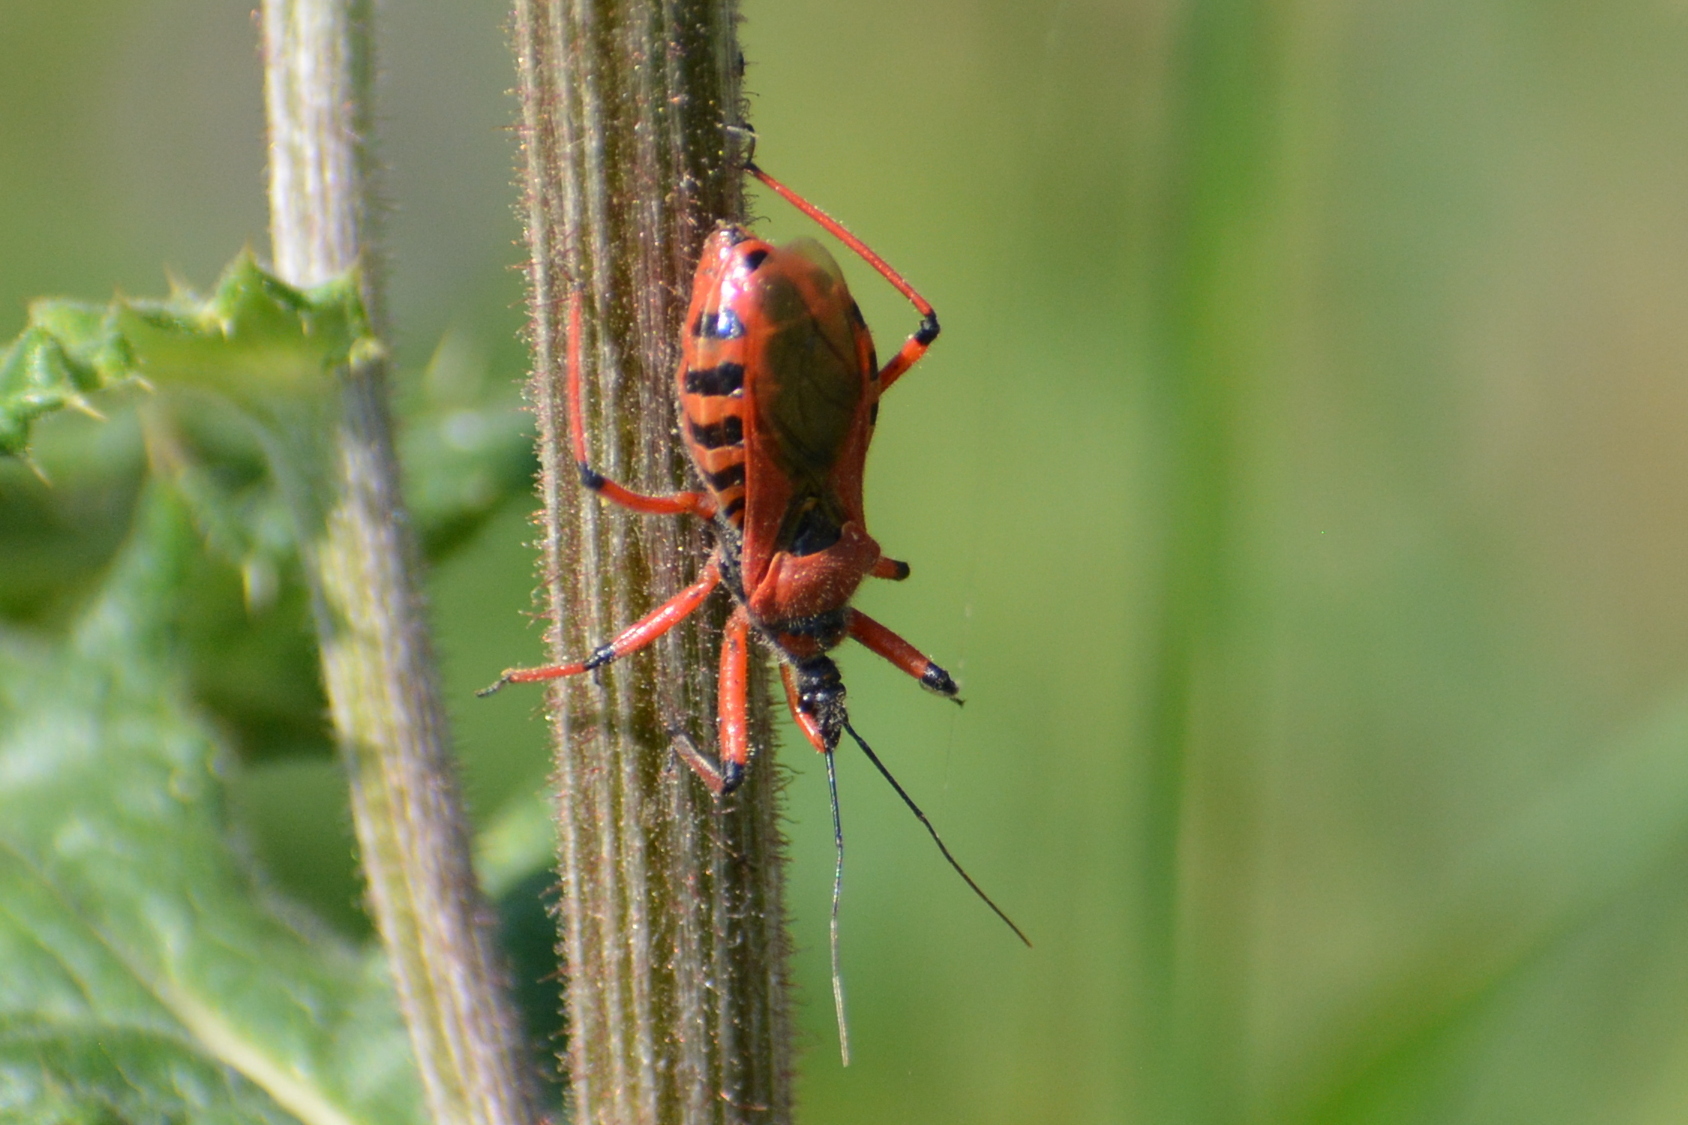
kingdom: Animalia
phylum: Arthropoda
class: Insecta
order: Hemiptera
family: Reduviidae
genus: Rhynocoris
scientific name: Rhynocoris iracundus
